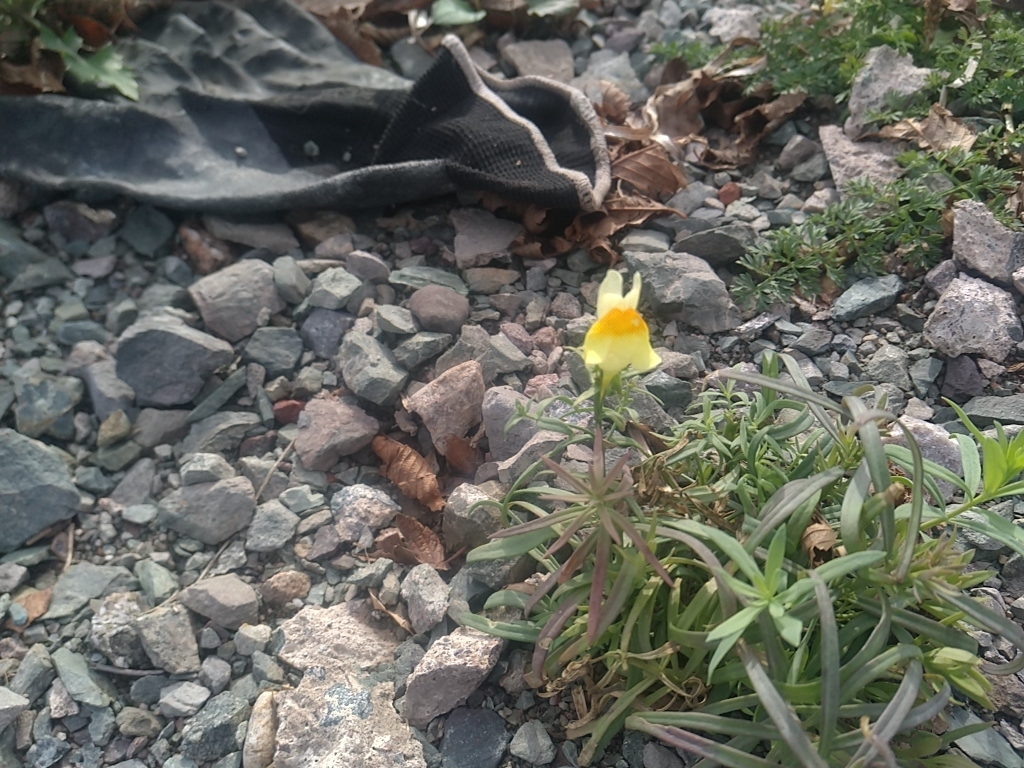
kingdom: Plantae
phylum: Tracheophyta
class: Magnoliopsida
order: Lamiales
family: Plantaginaceae
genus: Linaria
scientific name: Linaria vulgaris
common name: Butter and eggs
